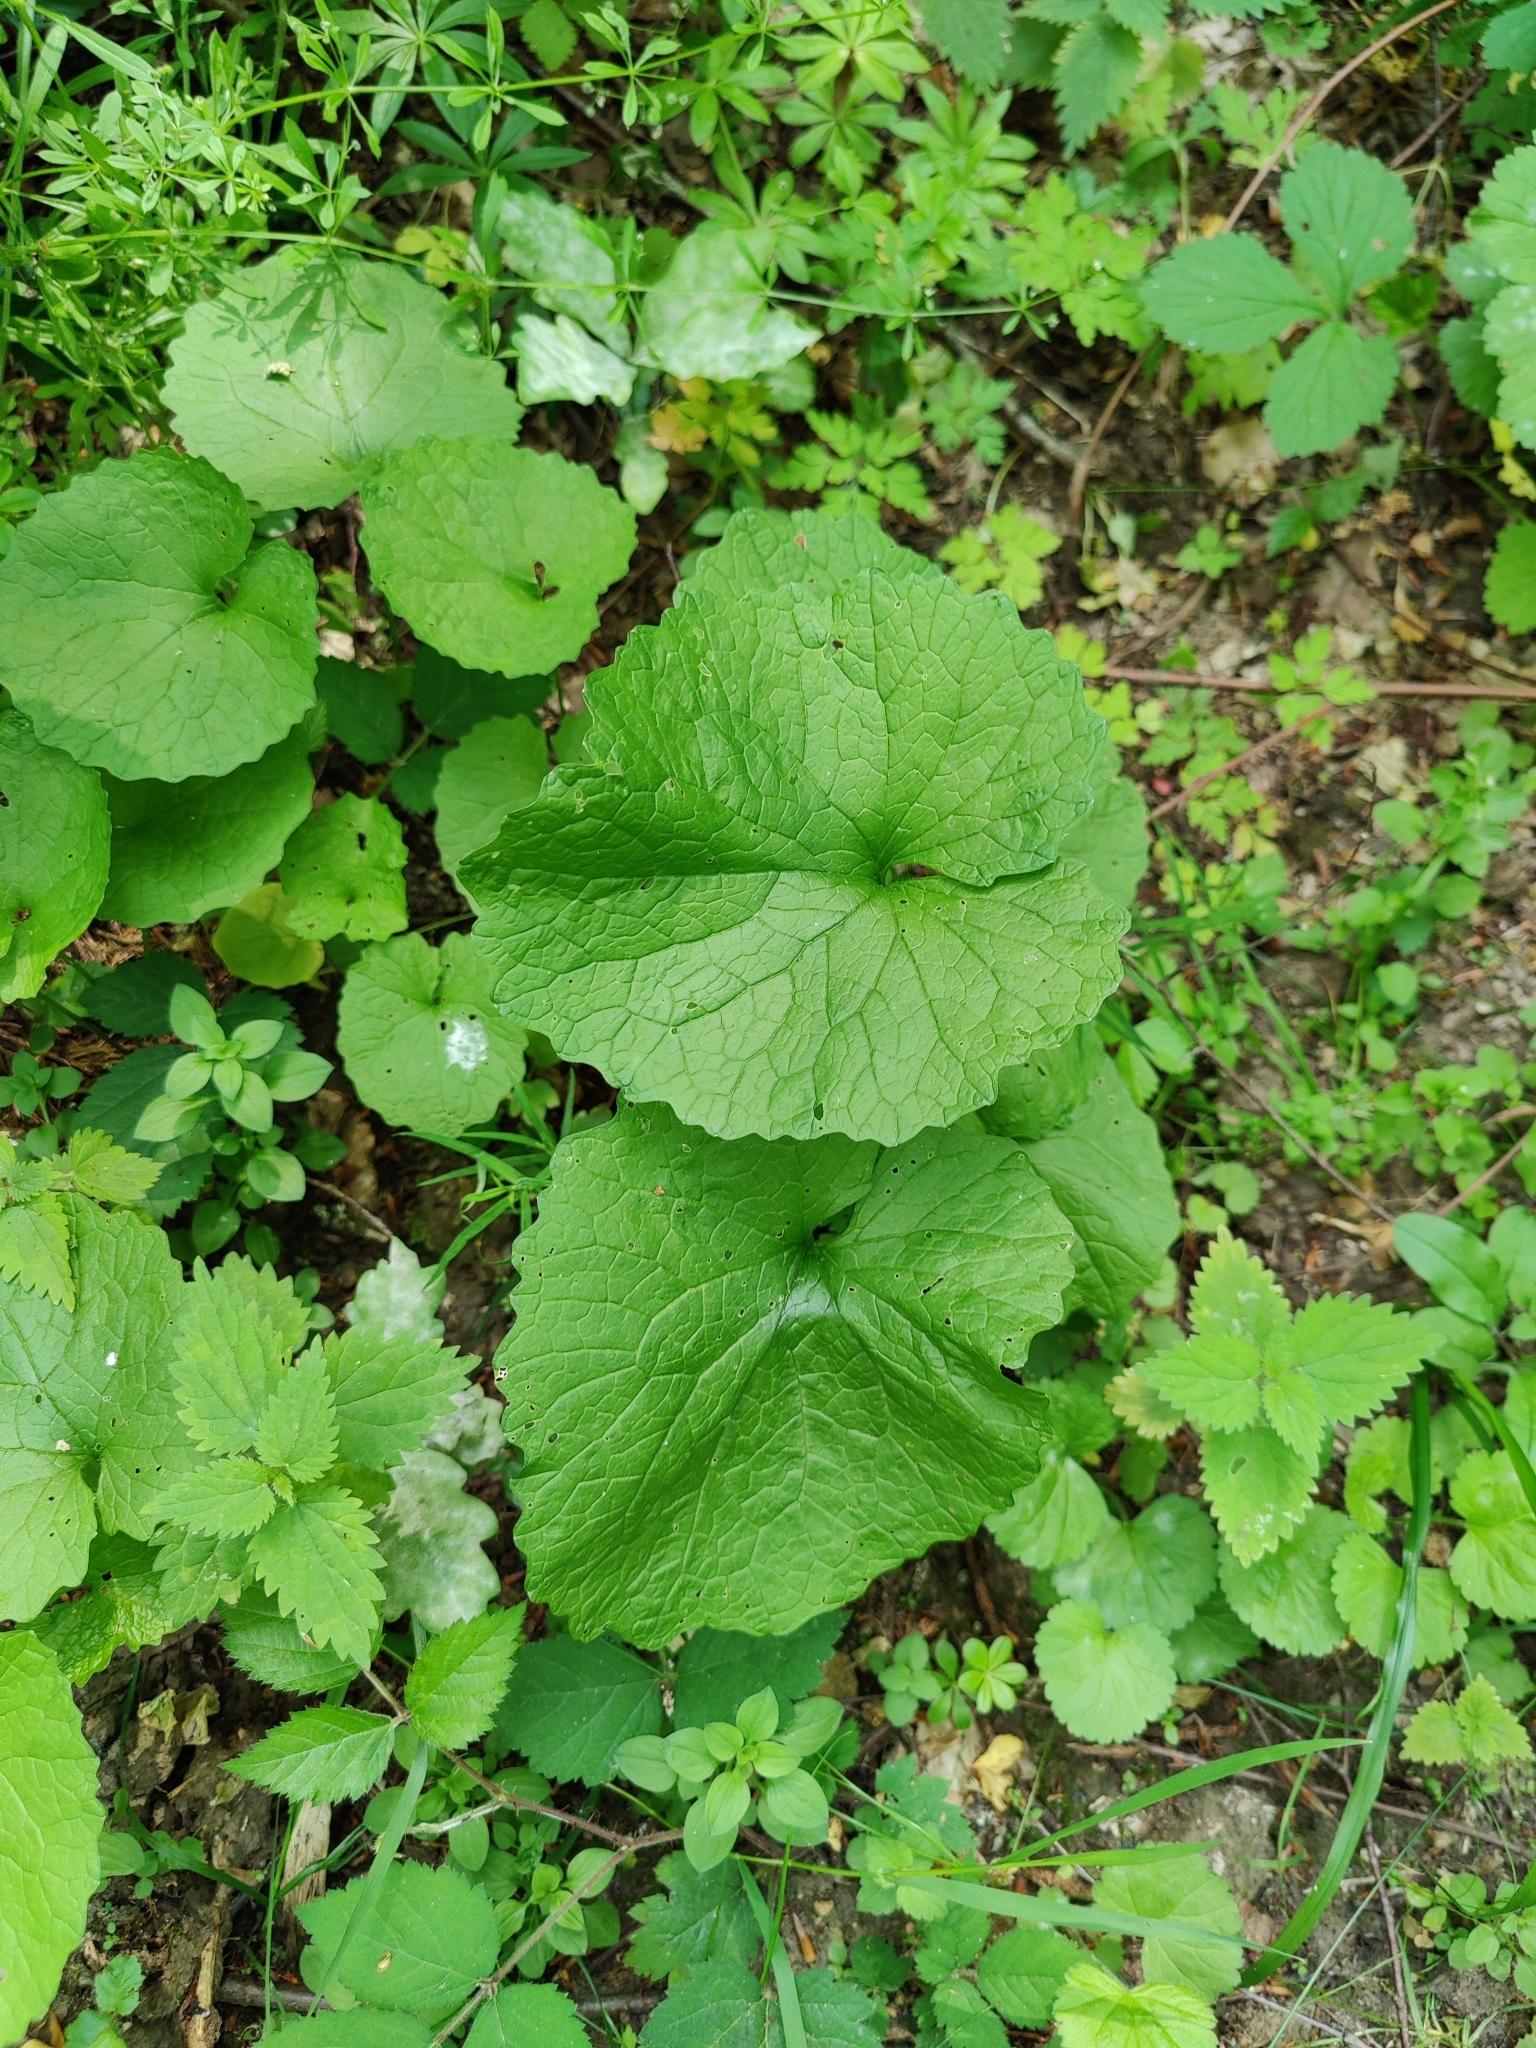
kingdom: Plantae
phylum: Tracheophyta
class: Magnoliopsida
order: Brassicales
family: Brassicaceae
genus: Alliaria
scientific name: Alliaria petiolata
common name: Garlic mustard
